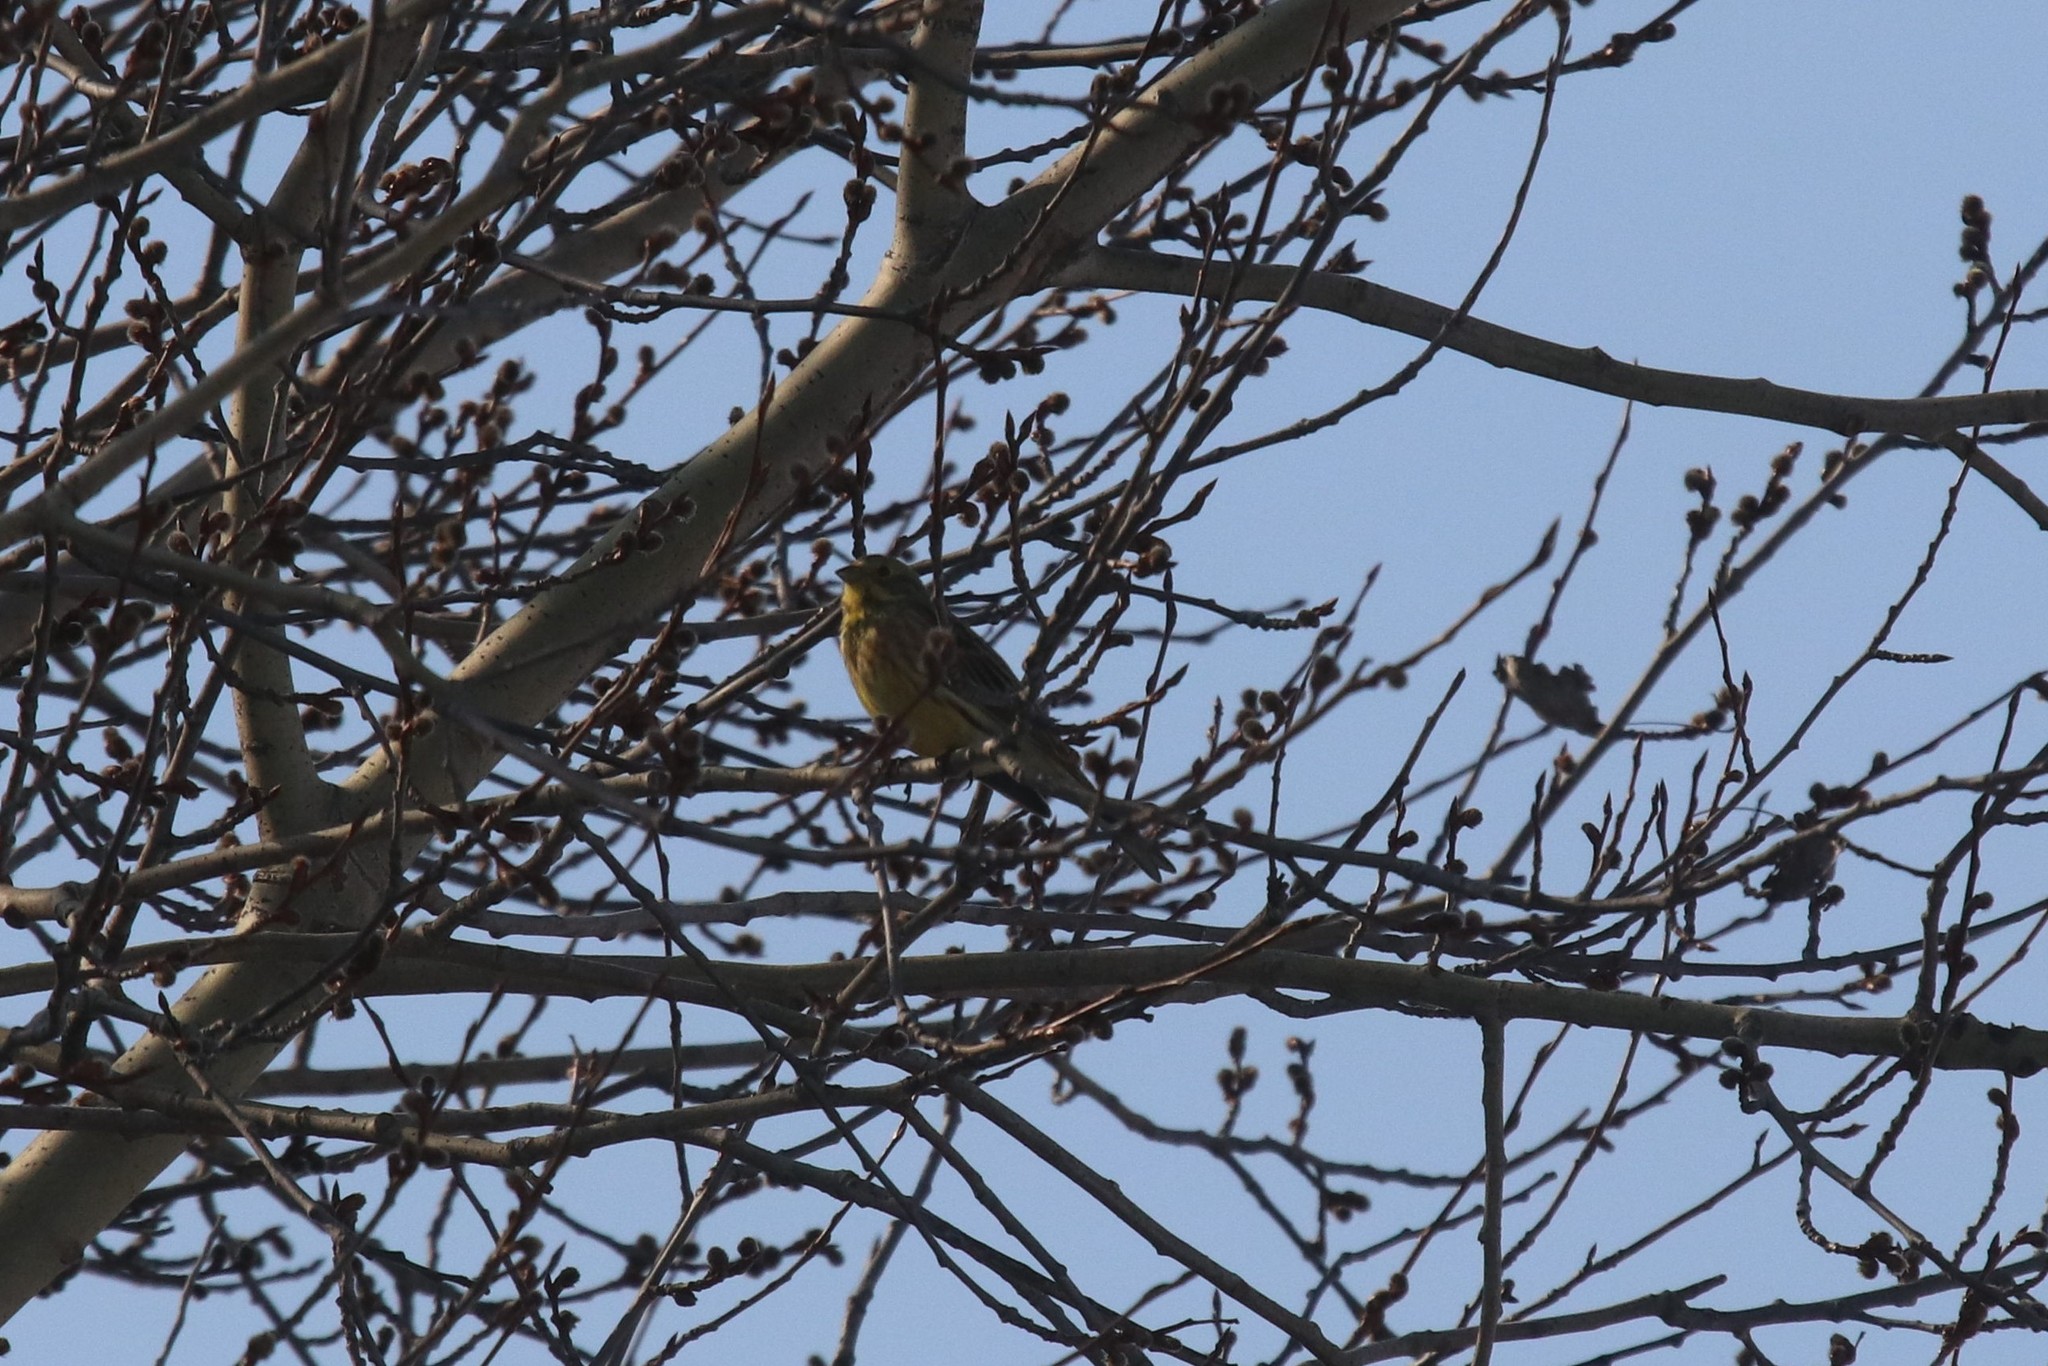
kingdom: Animalia
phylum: Chordata
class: Aves
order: Passeriformes
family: Emberizidae
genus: Emberiza
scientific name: Emberiza citrinella
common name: Yellowhammer
